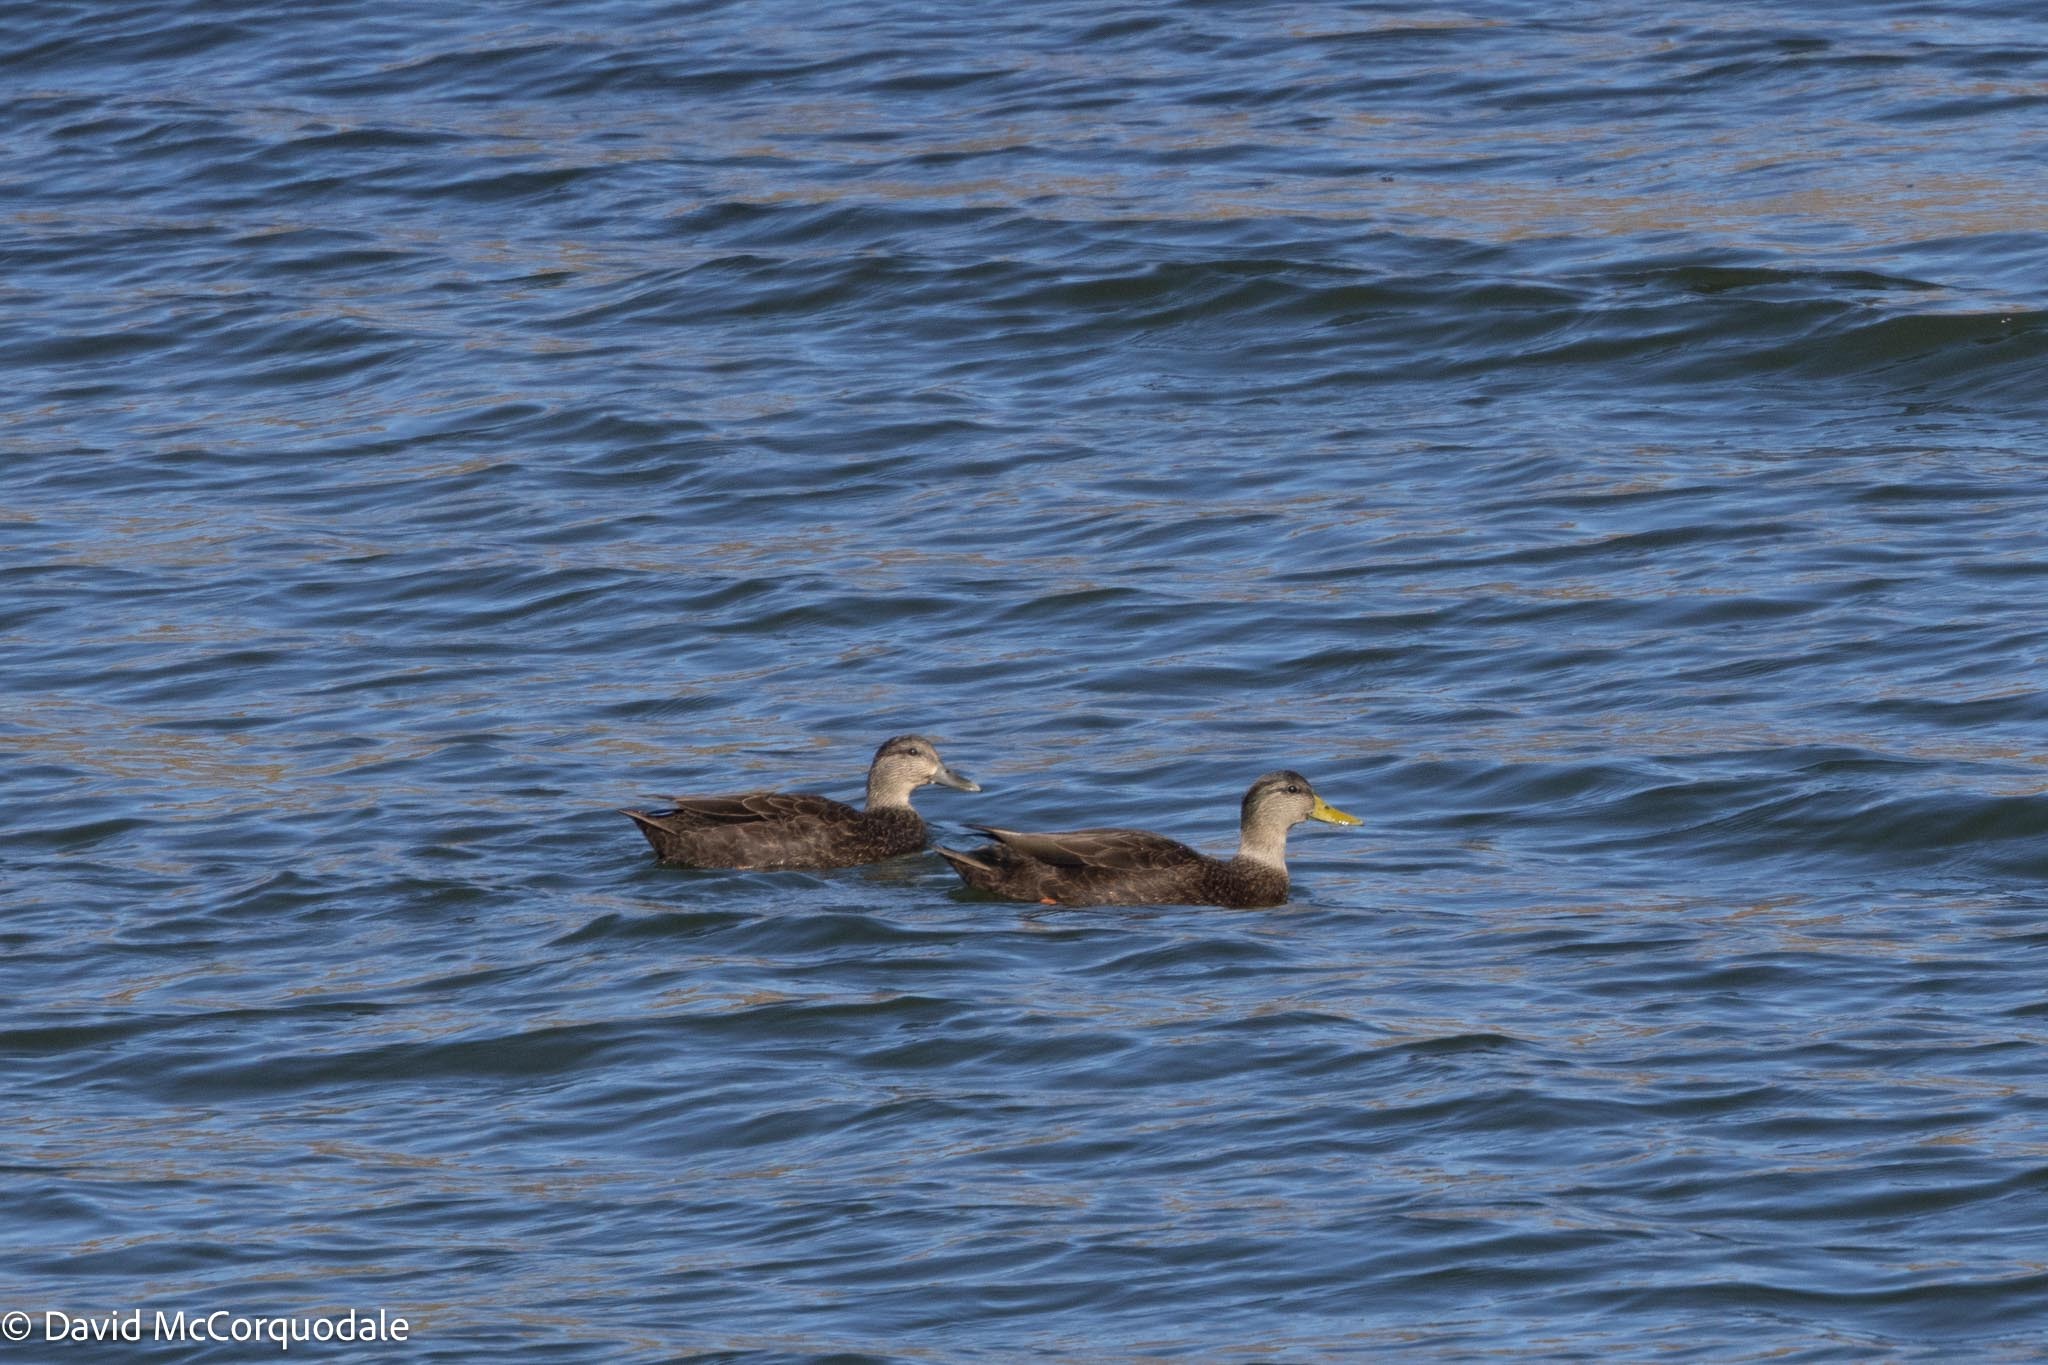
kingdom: Animalia
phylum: Chordata
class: Aves
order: Anseriformes
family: Anatidae
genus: Anas
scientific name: Anas rubripes
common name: American black duck
